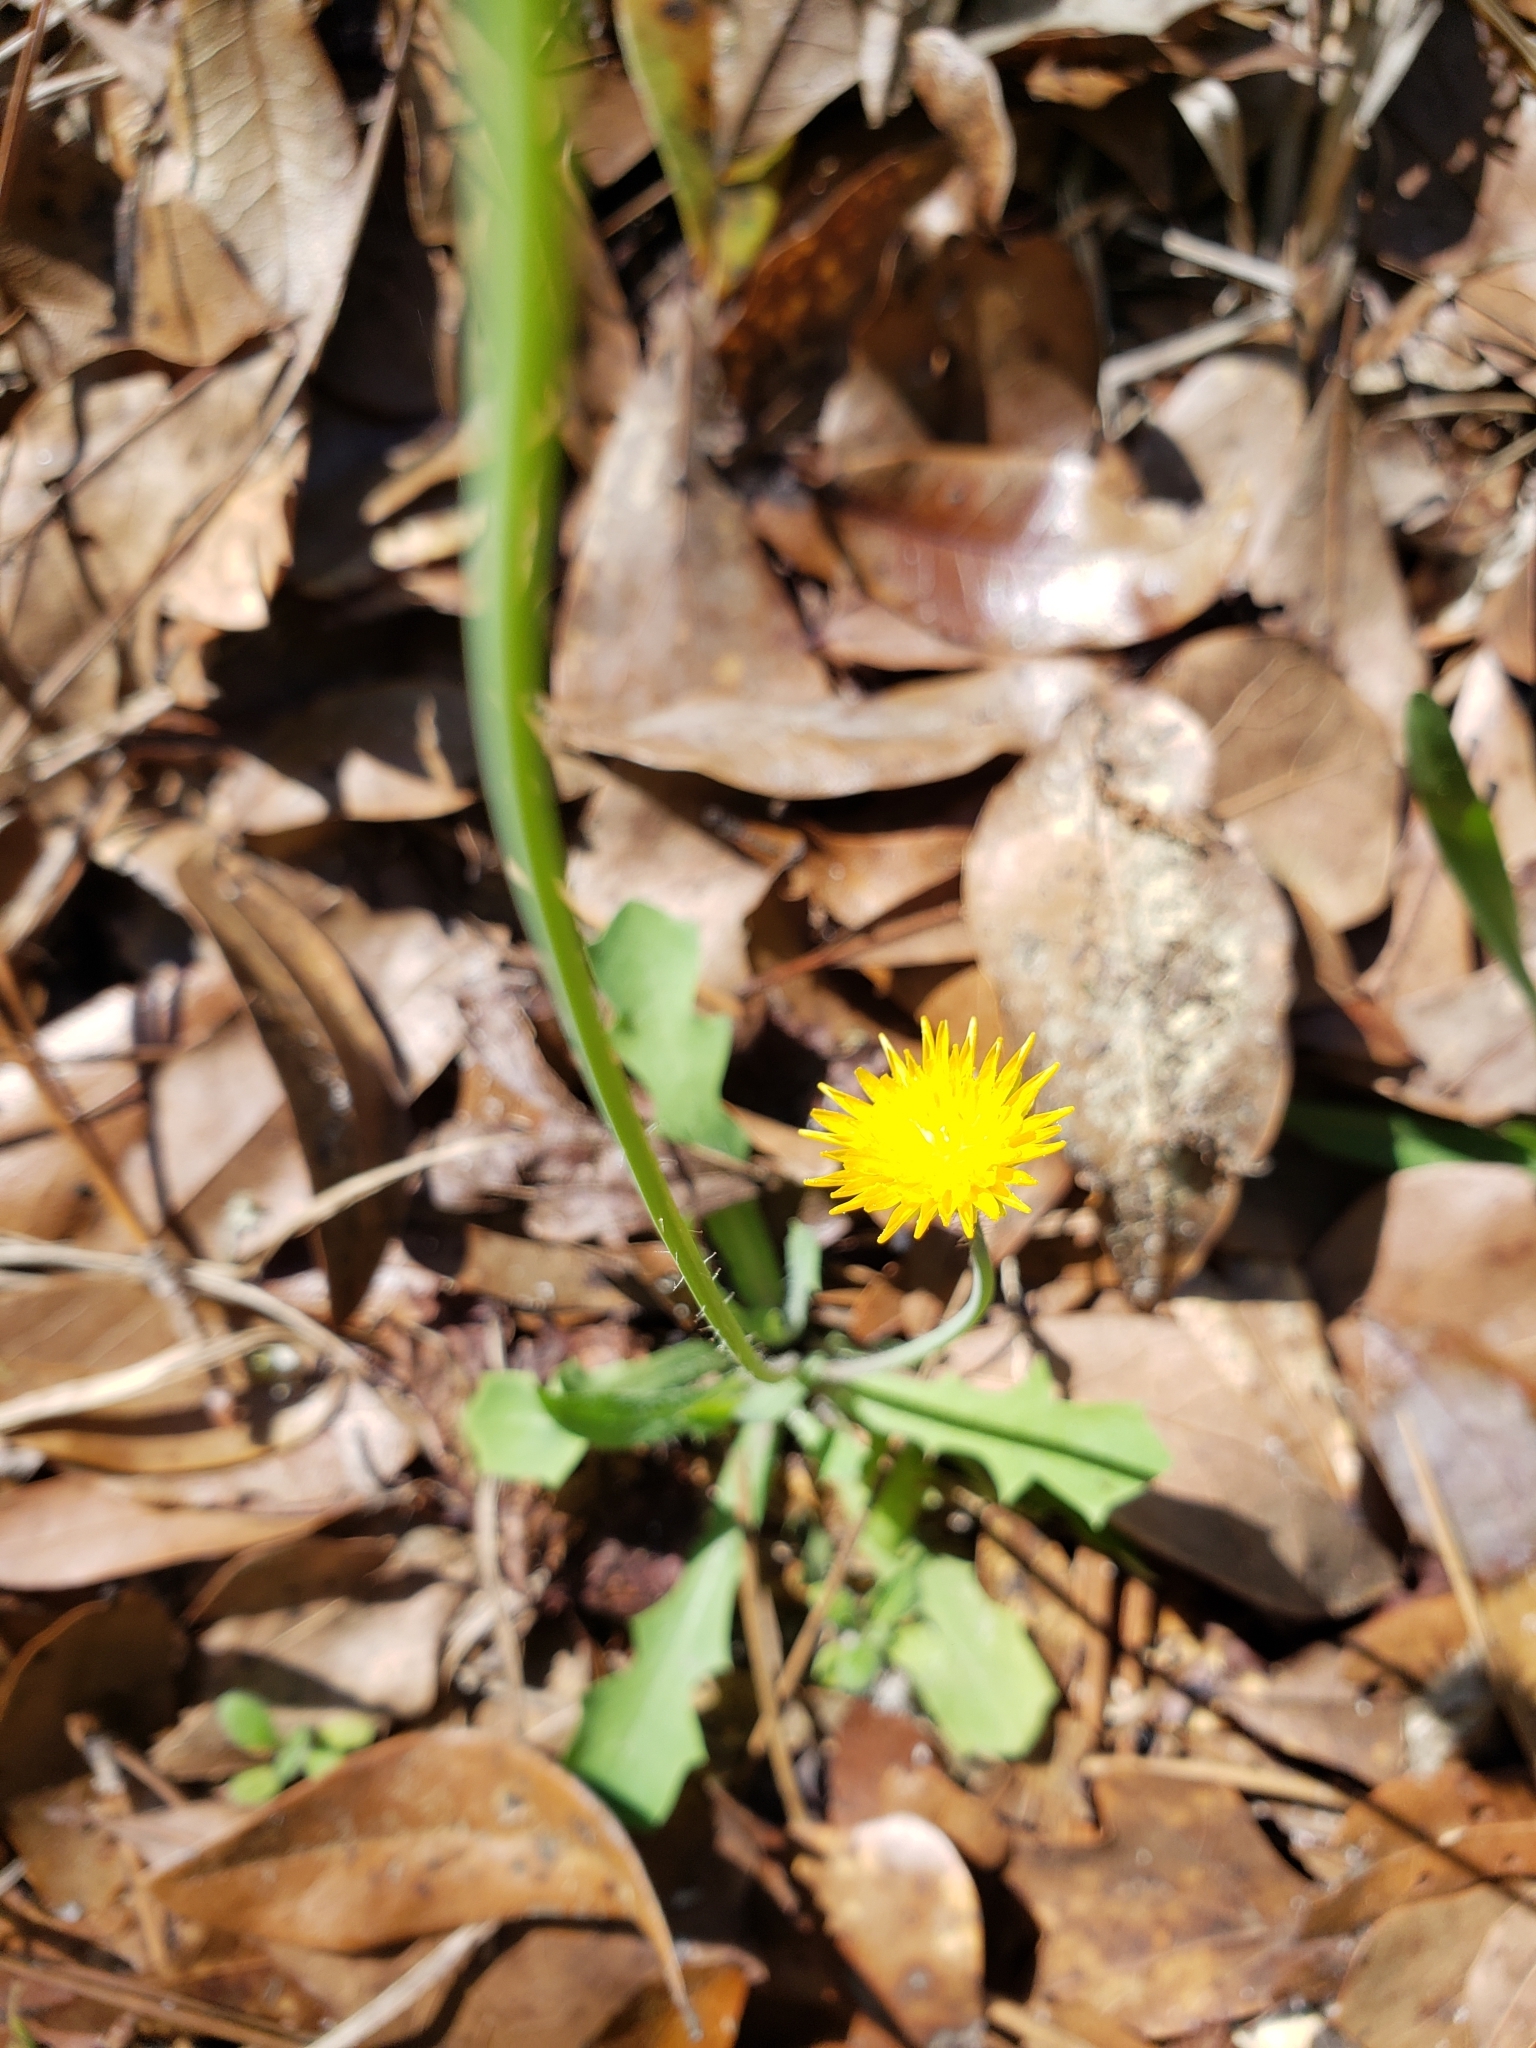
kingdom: Plantae
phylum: Tracheophyta
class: Magnoliopsida
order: Asterales
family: Asteraceae
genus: Krigia
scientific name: Krigia virginica
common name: Virginia dwarf-dandelion
